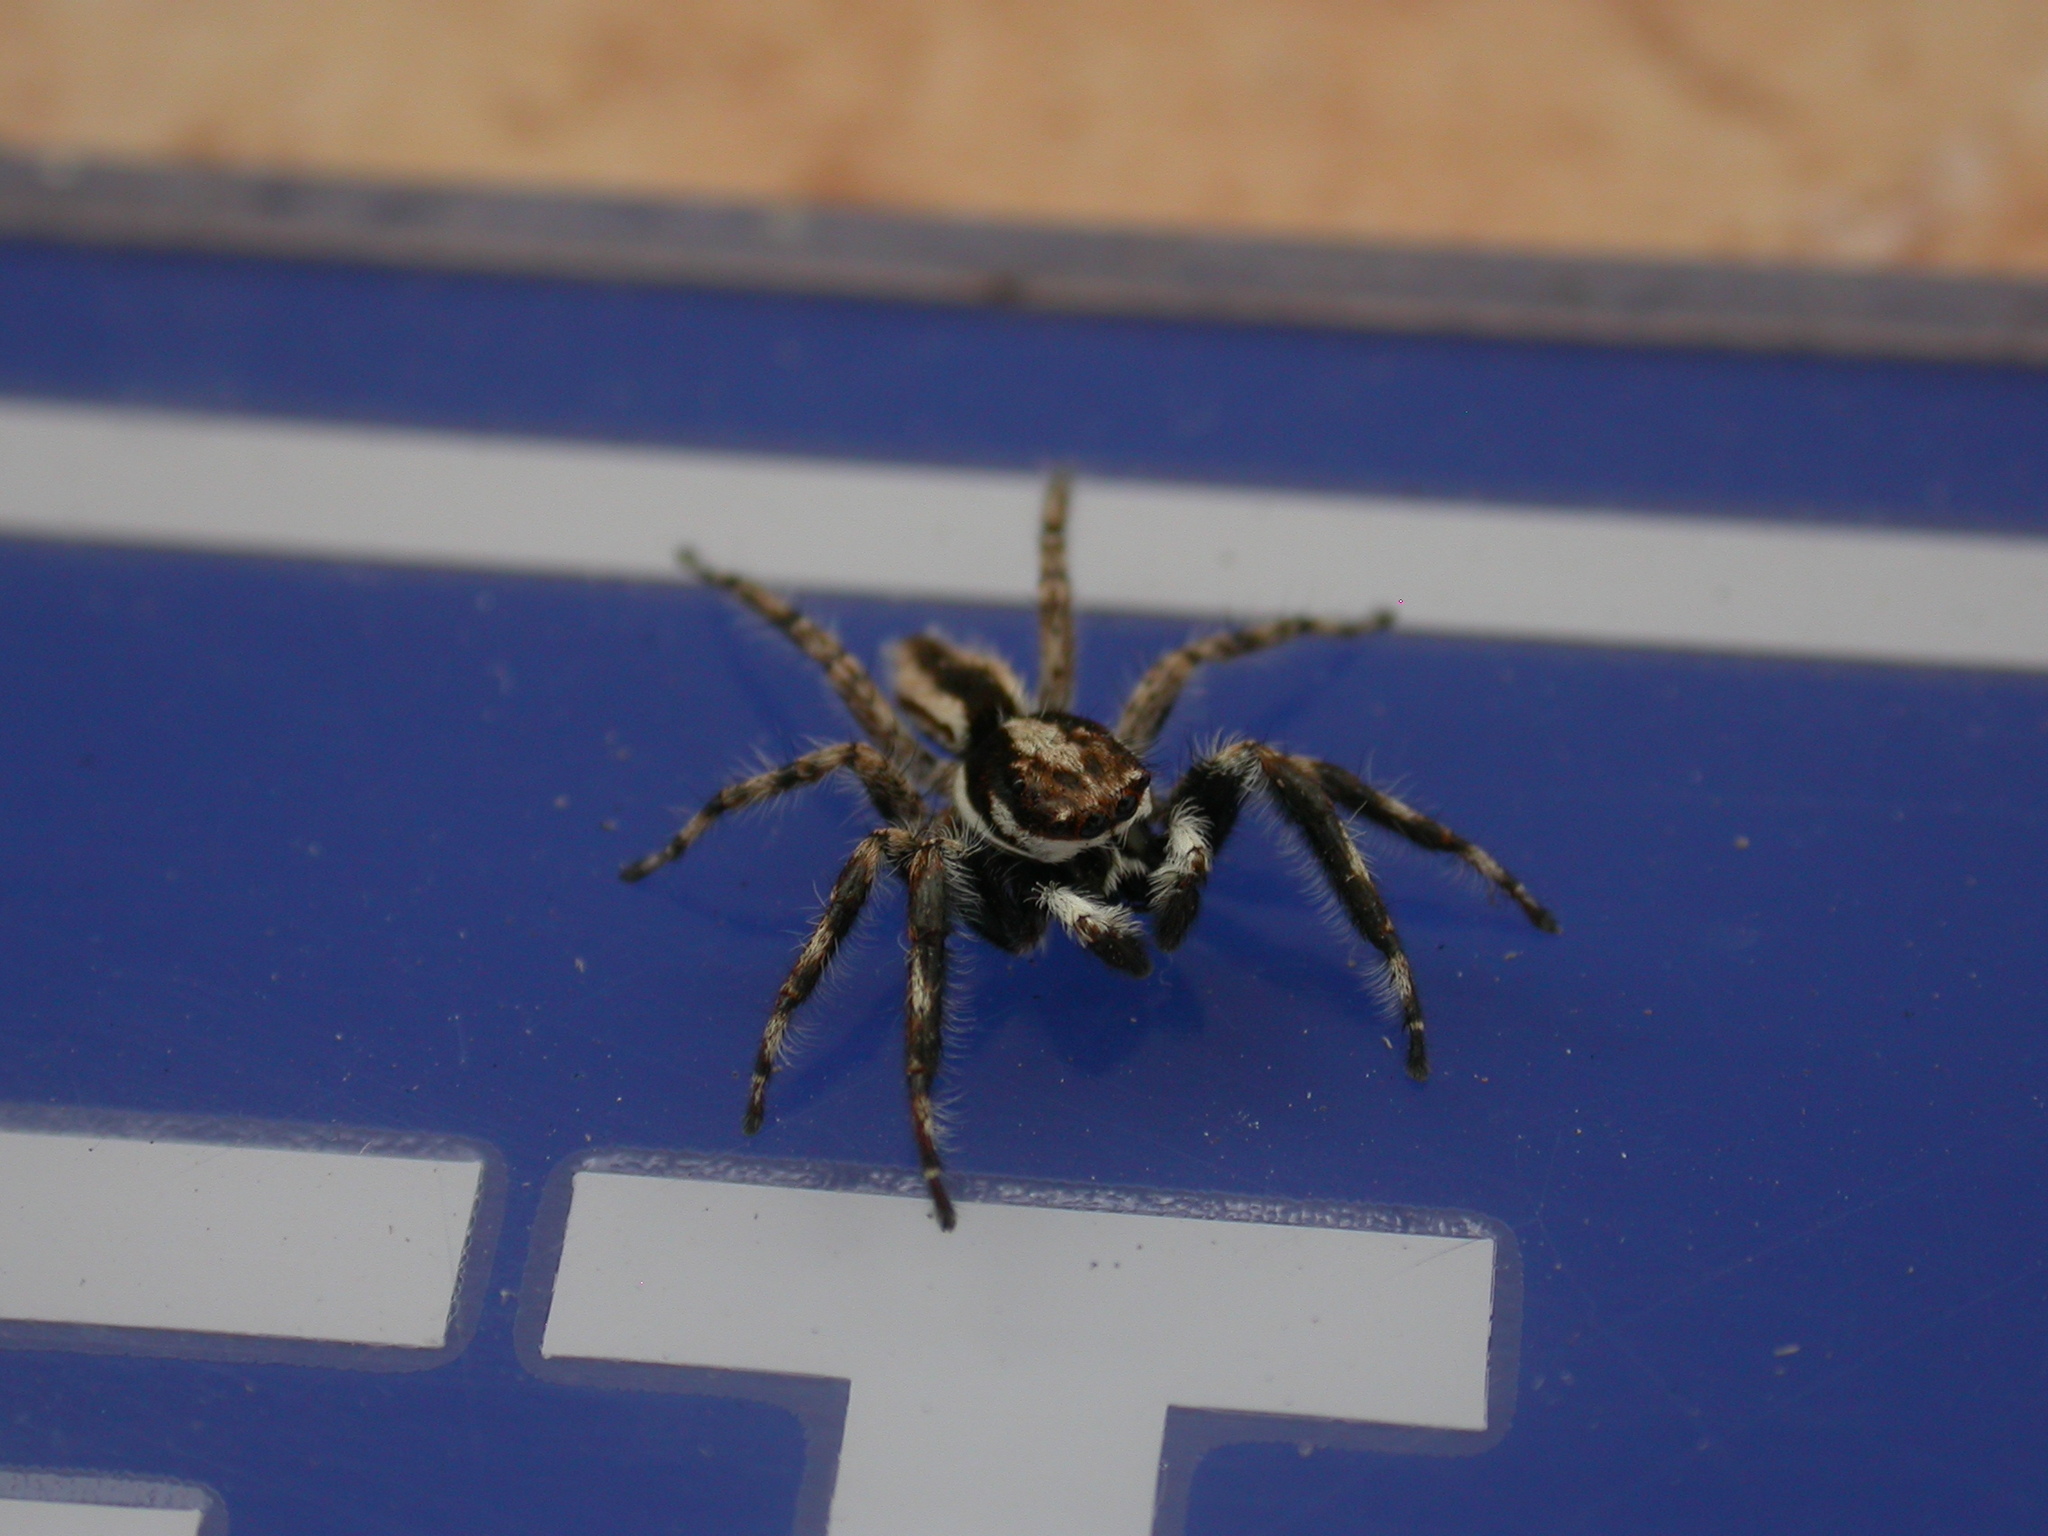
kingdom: Animalia
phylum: Arthropoda
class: Arachnida
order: Araneae
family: Salticidae
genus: Menemerus
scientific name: Menemerus bivittatus
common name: Gray wall jumper
